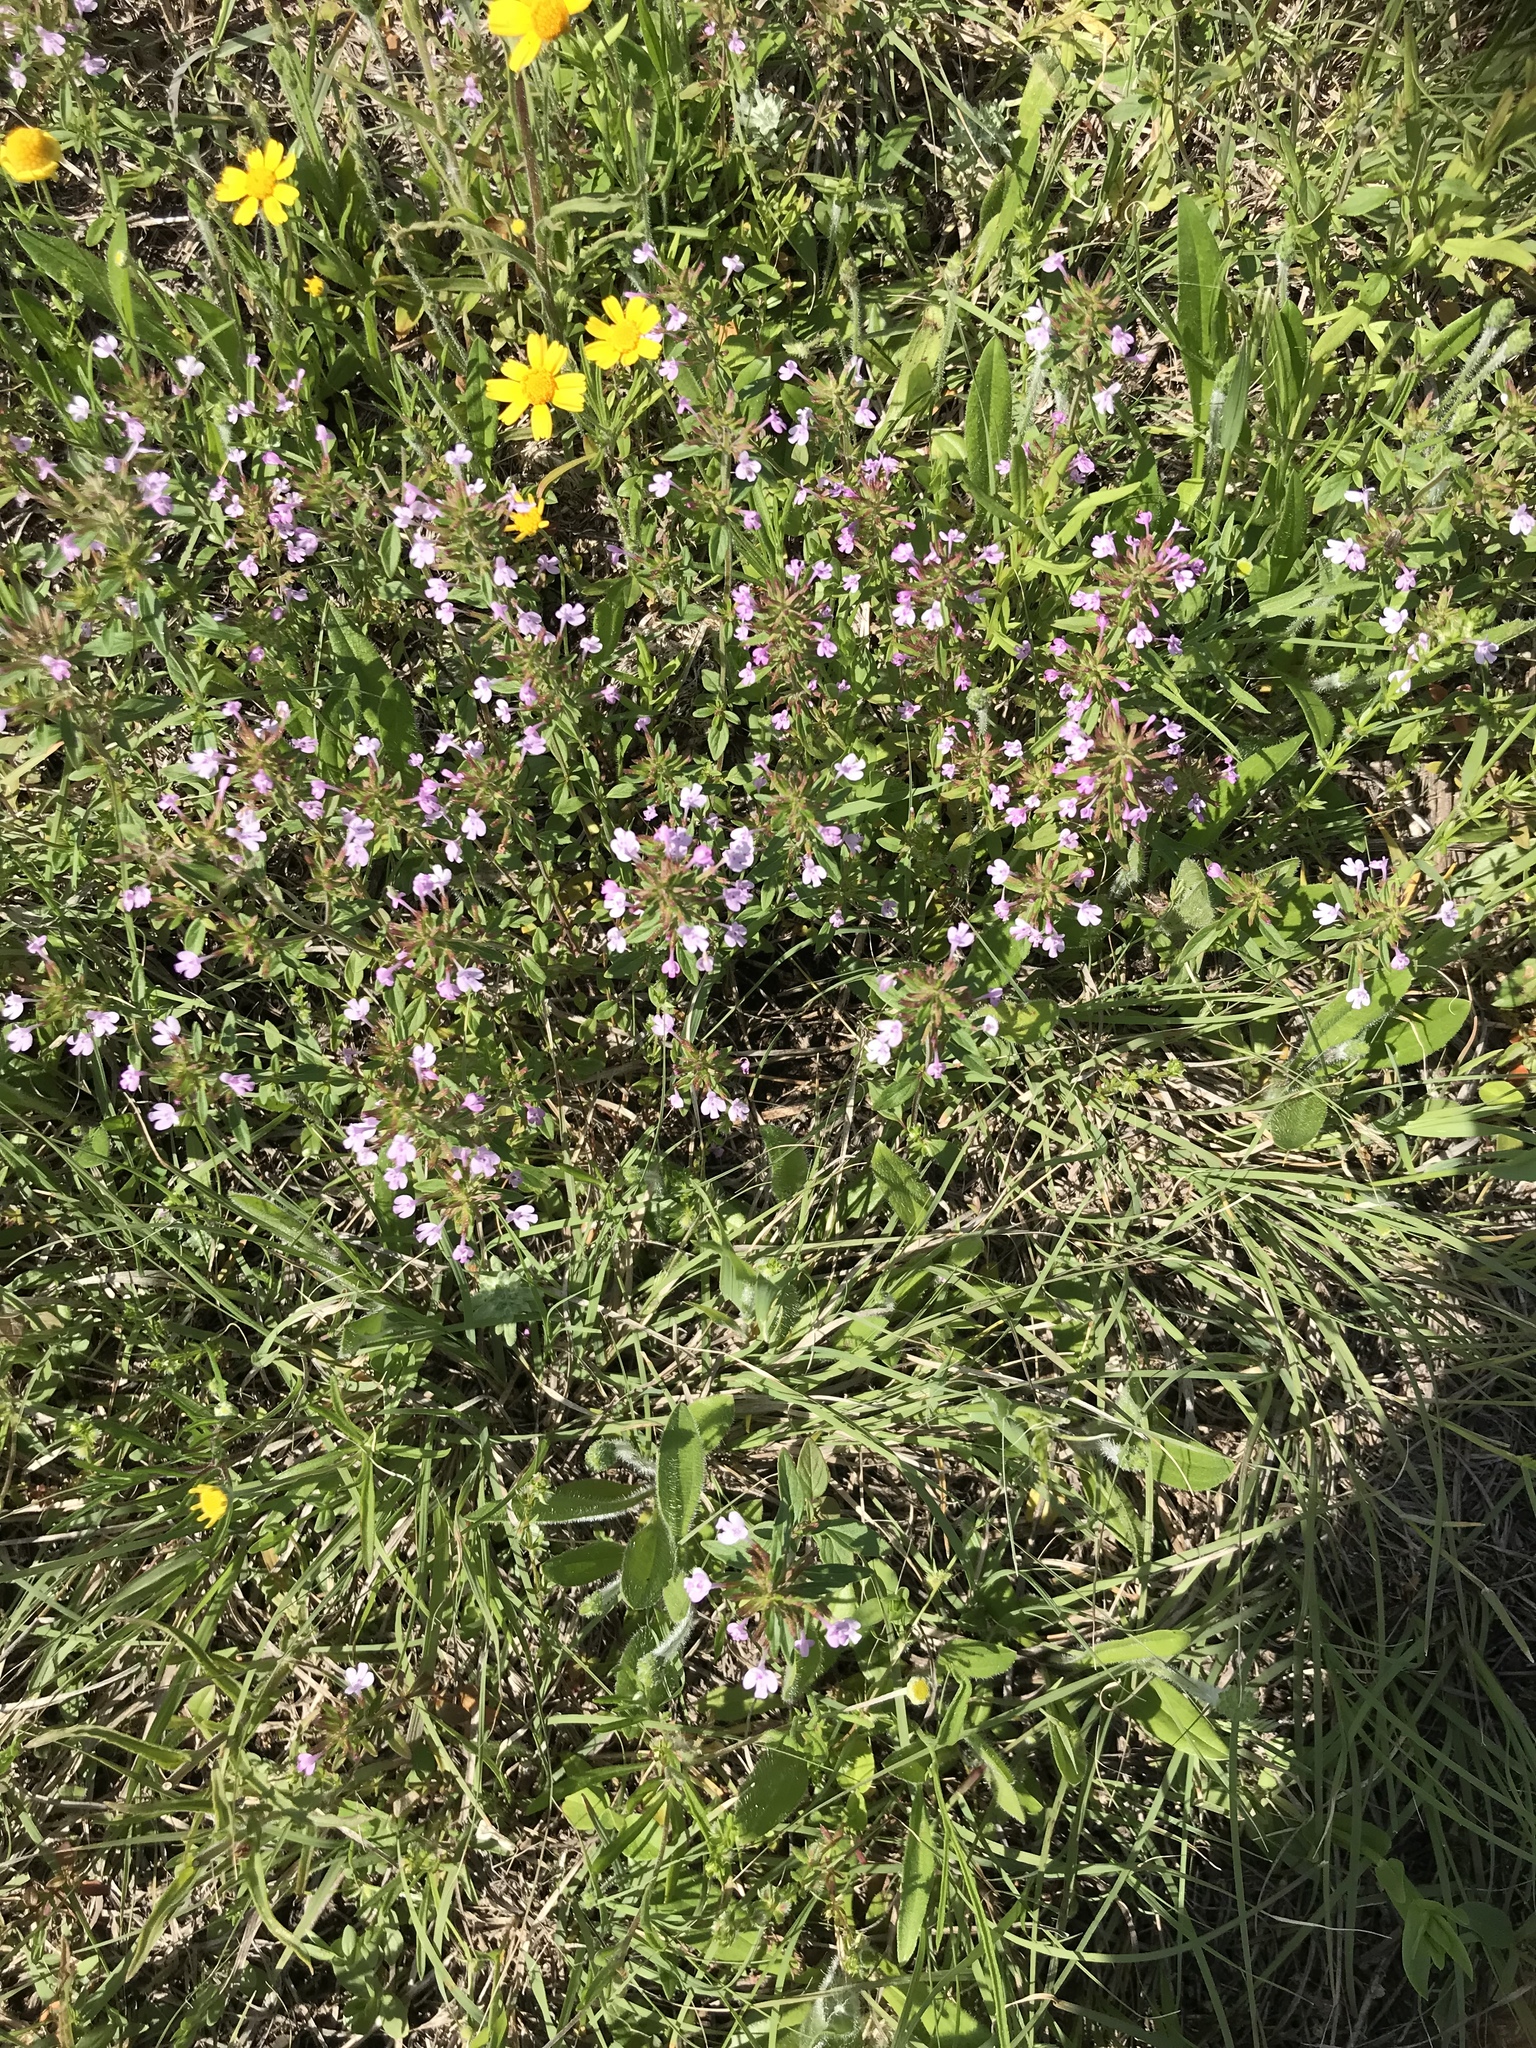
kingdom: Plantae
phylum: Tracheophyta
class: Magnoliopsida
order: Lamiales
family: Lamiaceae
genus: Hedeoma
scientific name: Hedeoma acinoides
